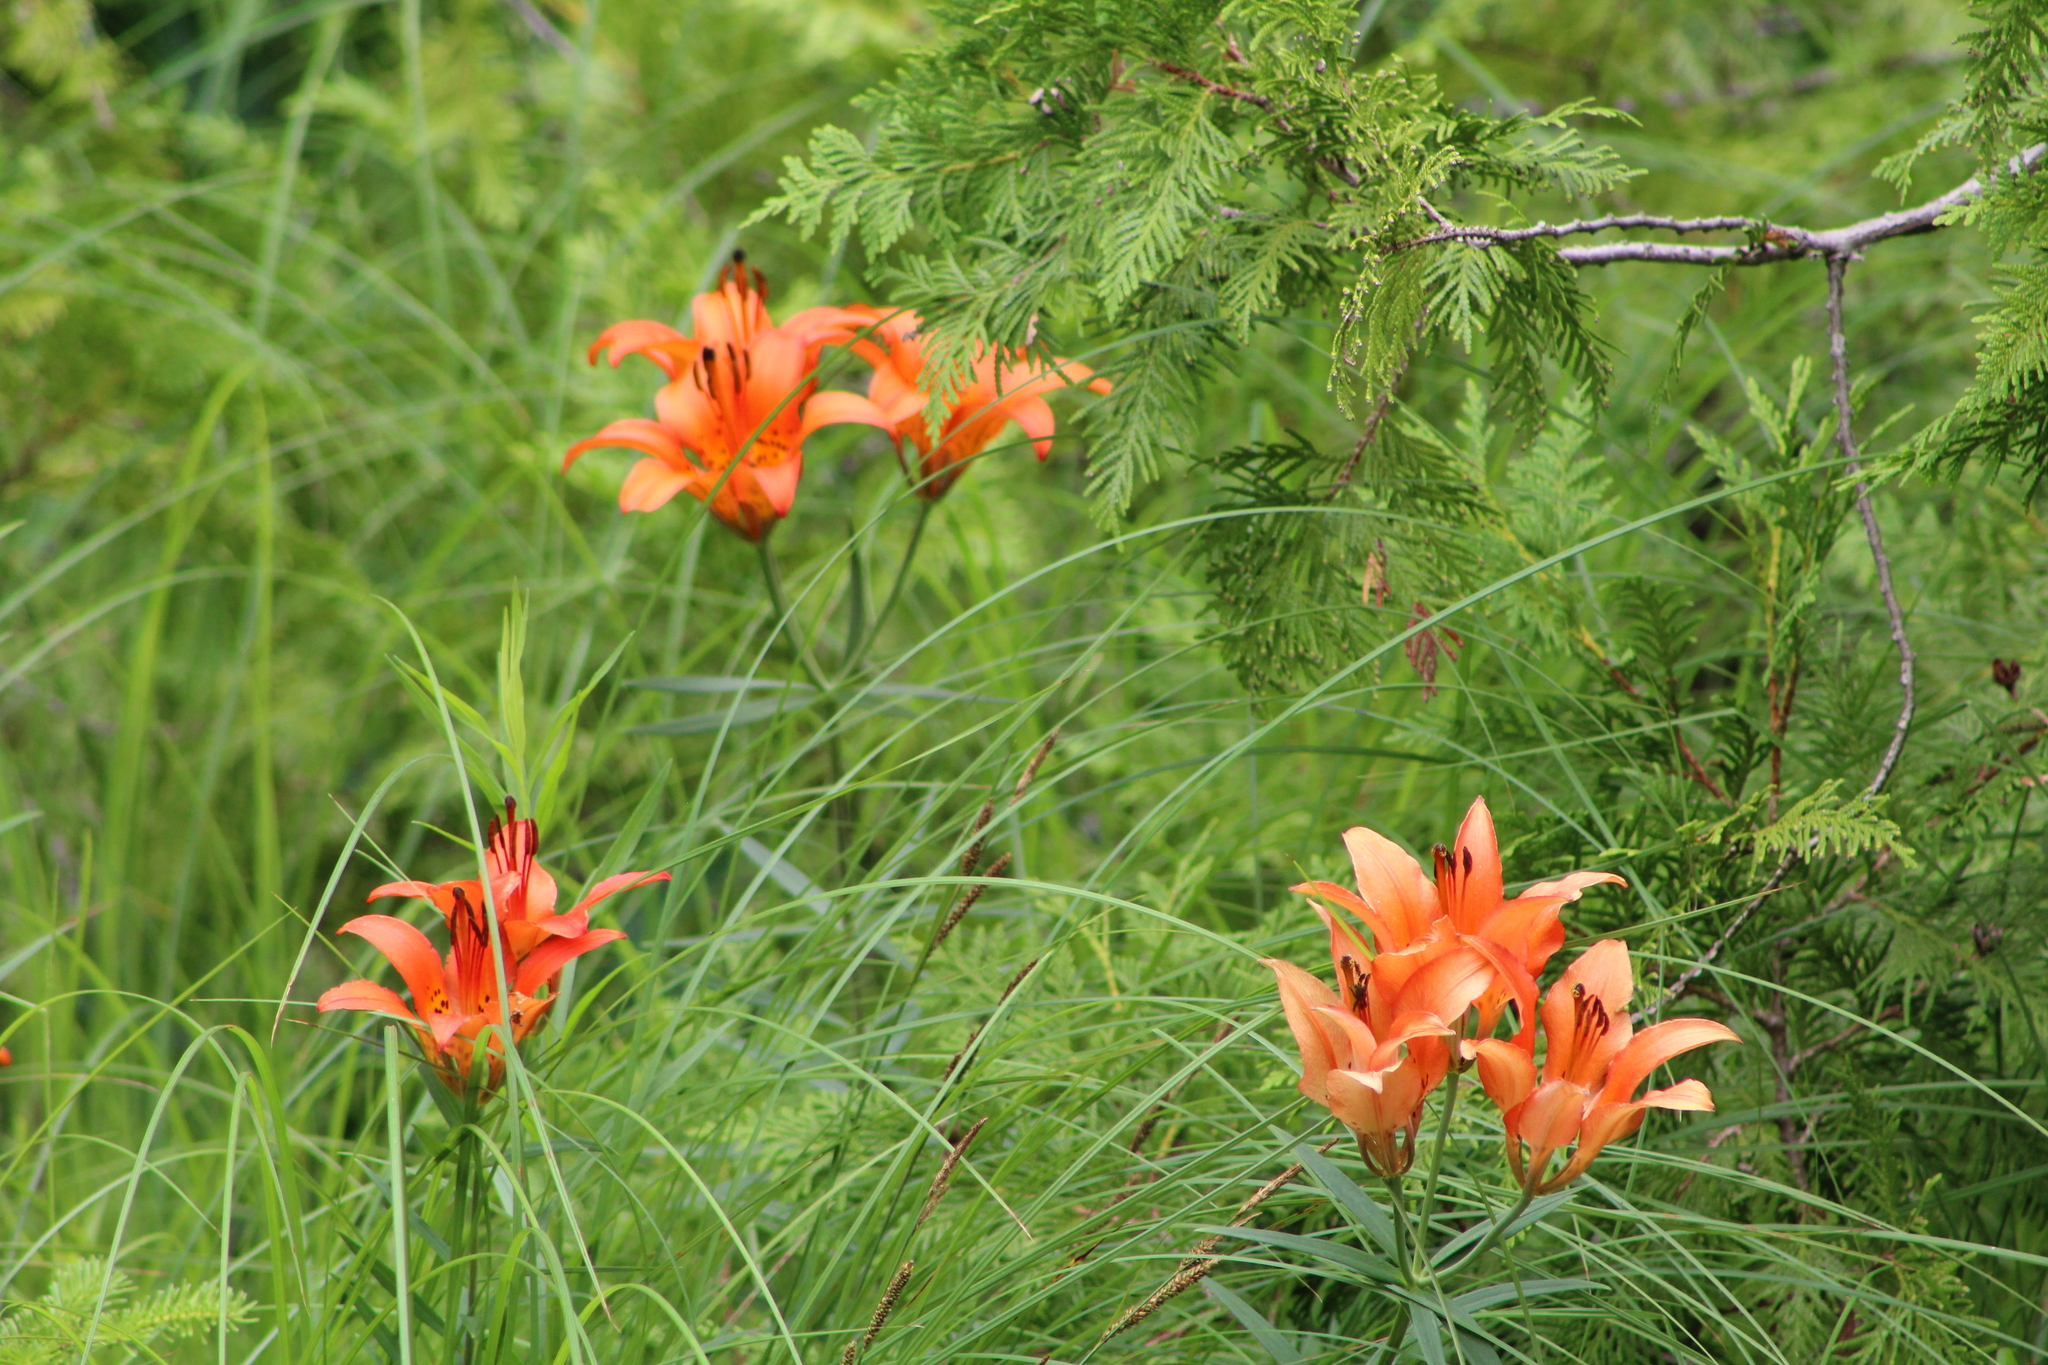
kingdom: Plantae
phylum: Tracheophyta
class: Liliopsida
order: Liliales
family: Liliaceae
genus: Lilium
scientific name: Lilium philadelphicum
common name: Red lily
